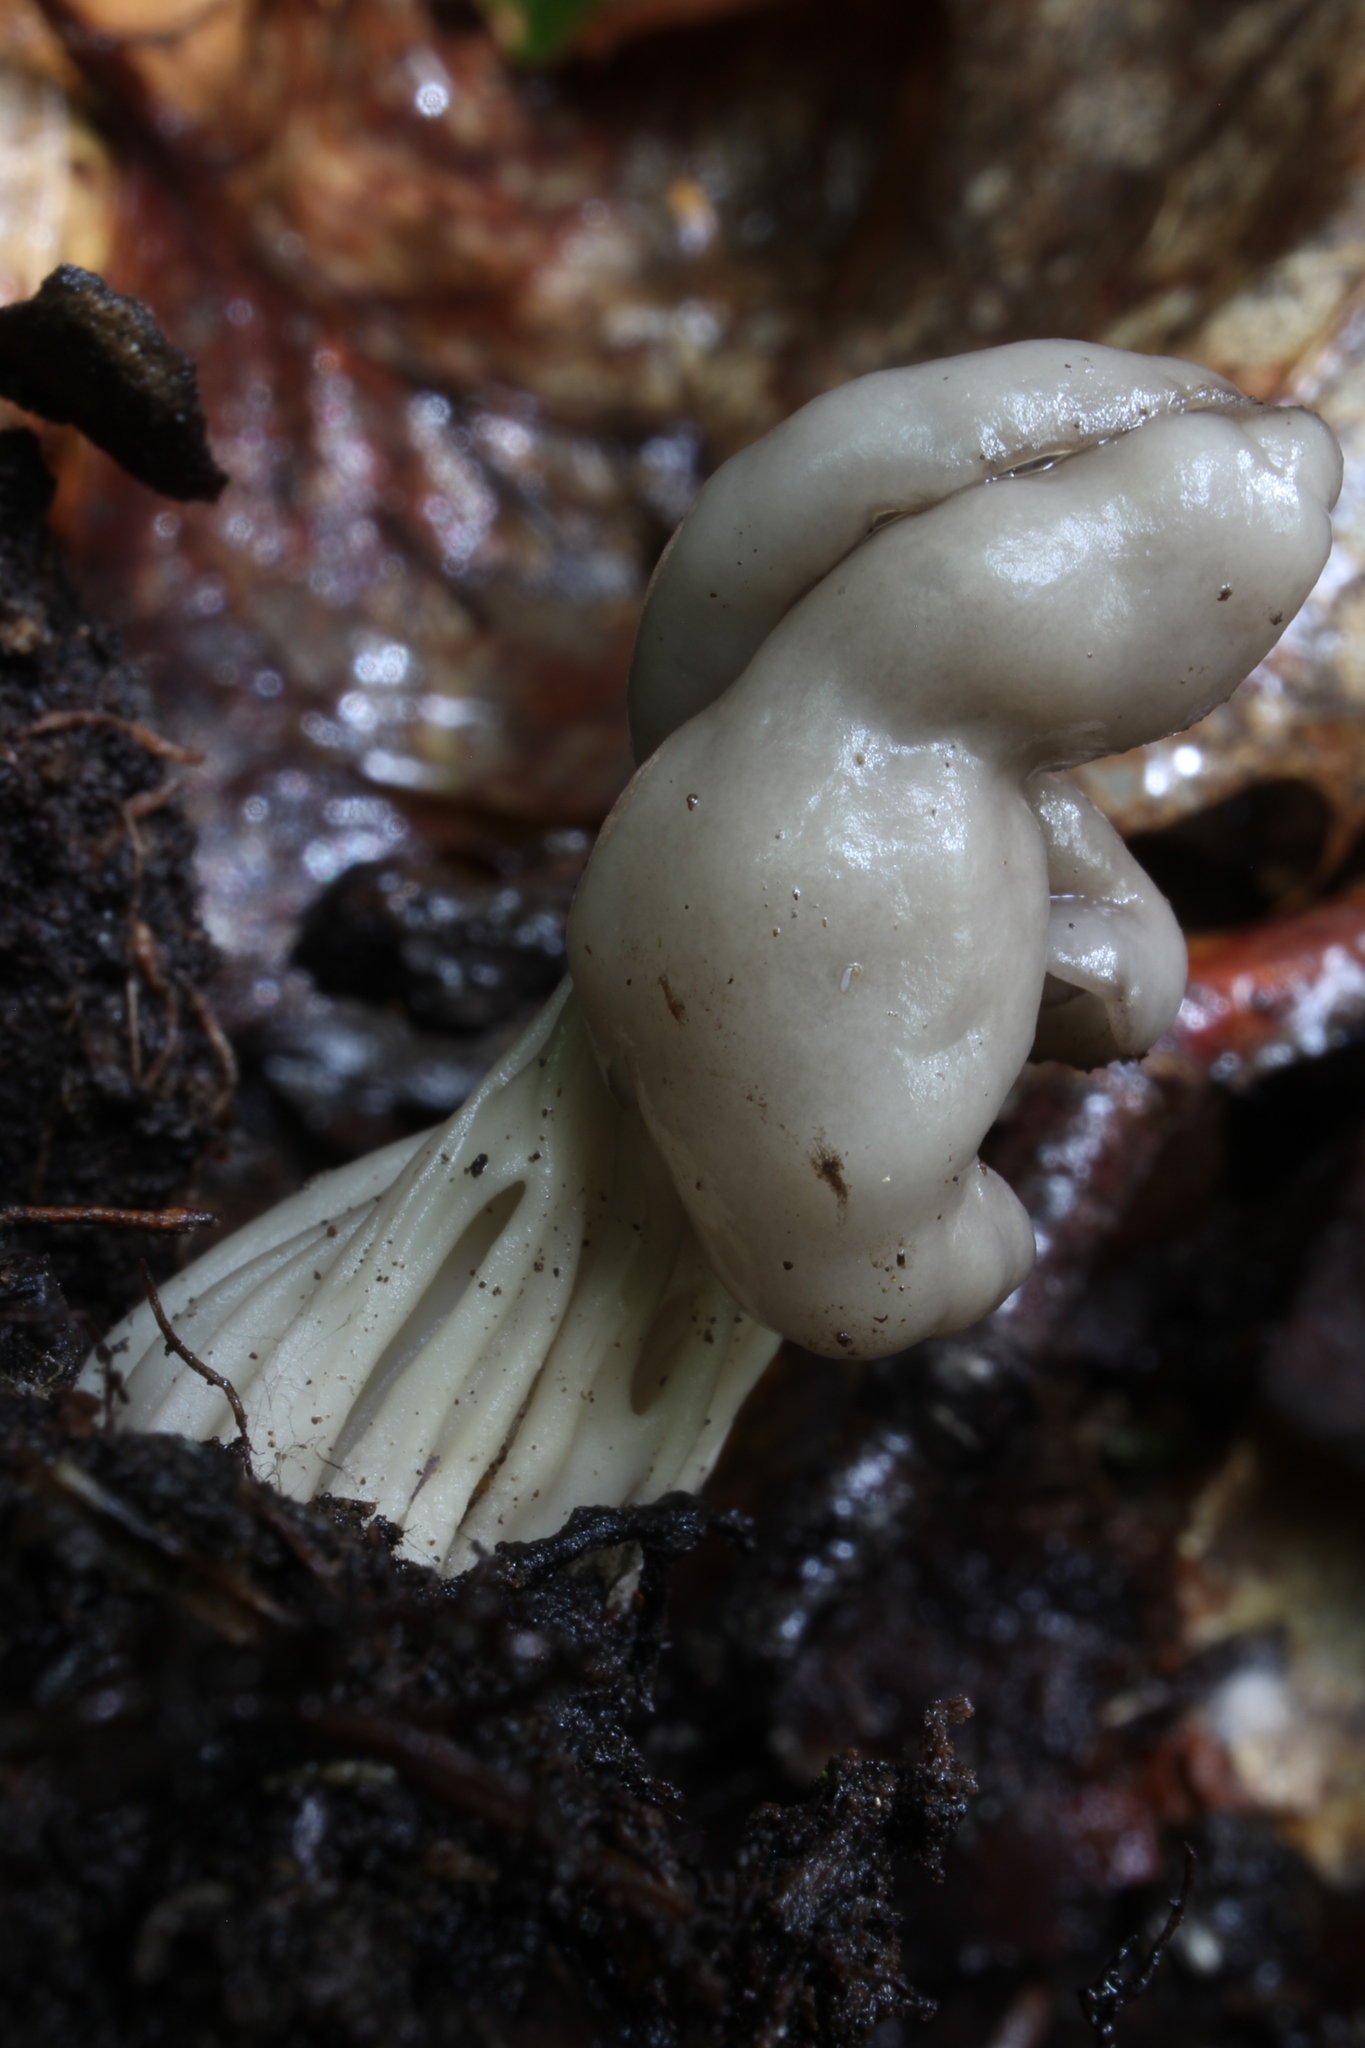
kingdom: Fungi
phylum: Ascomycota
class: Pezizomycetes
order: Pezizales
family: Helvellaceae
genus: Helvella
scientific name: Helvella lacunosa
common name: Elfin saddle
